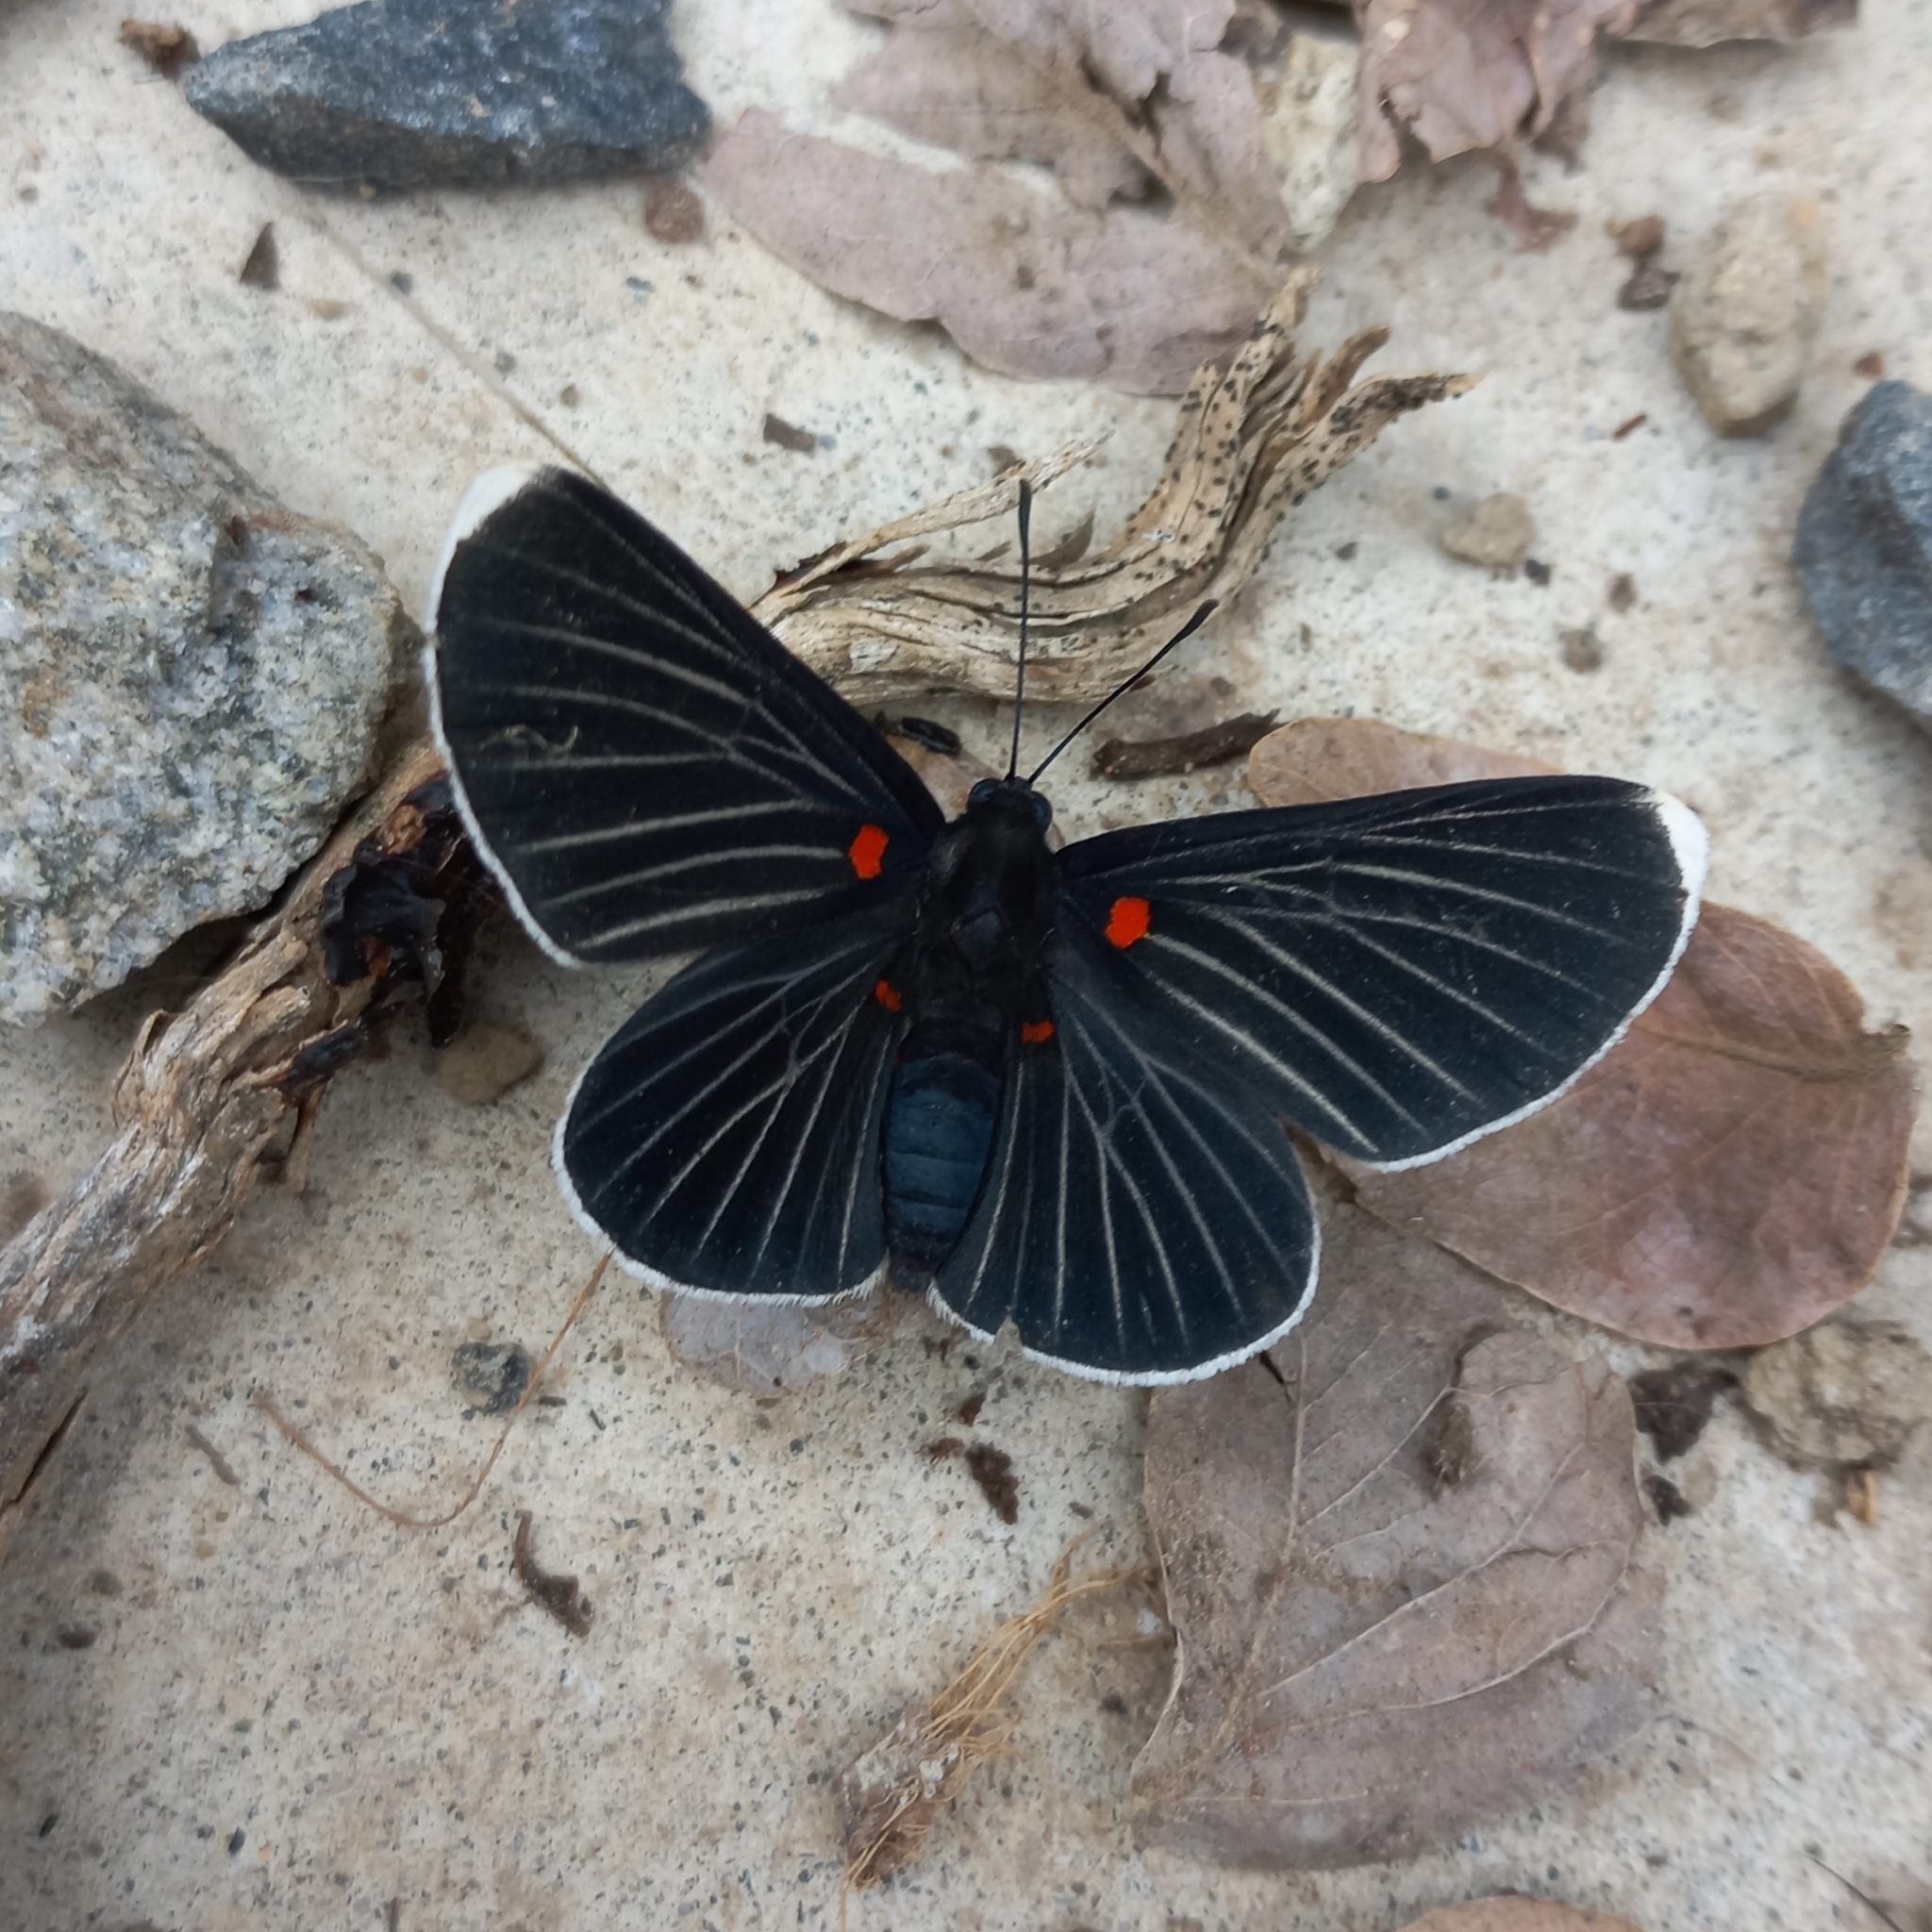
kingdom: Animalia
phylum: Arthropoda
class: Insecta
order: Lepidoptera
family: Lycaenidae
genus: Melanis
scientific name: Melanis
